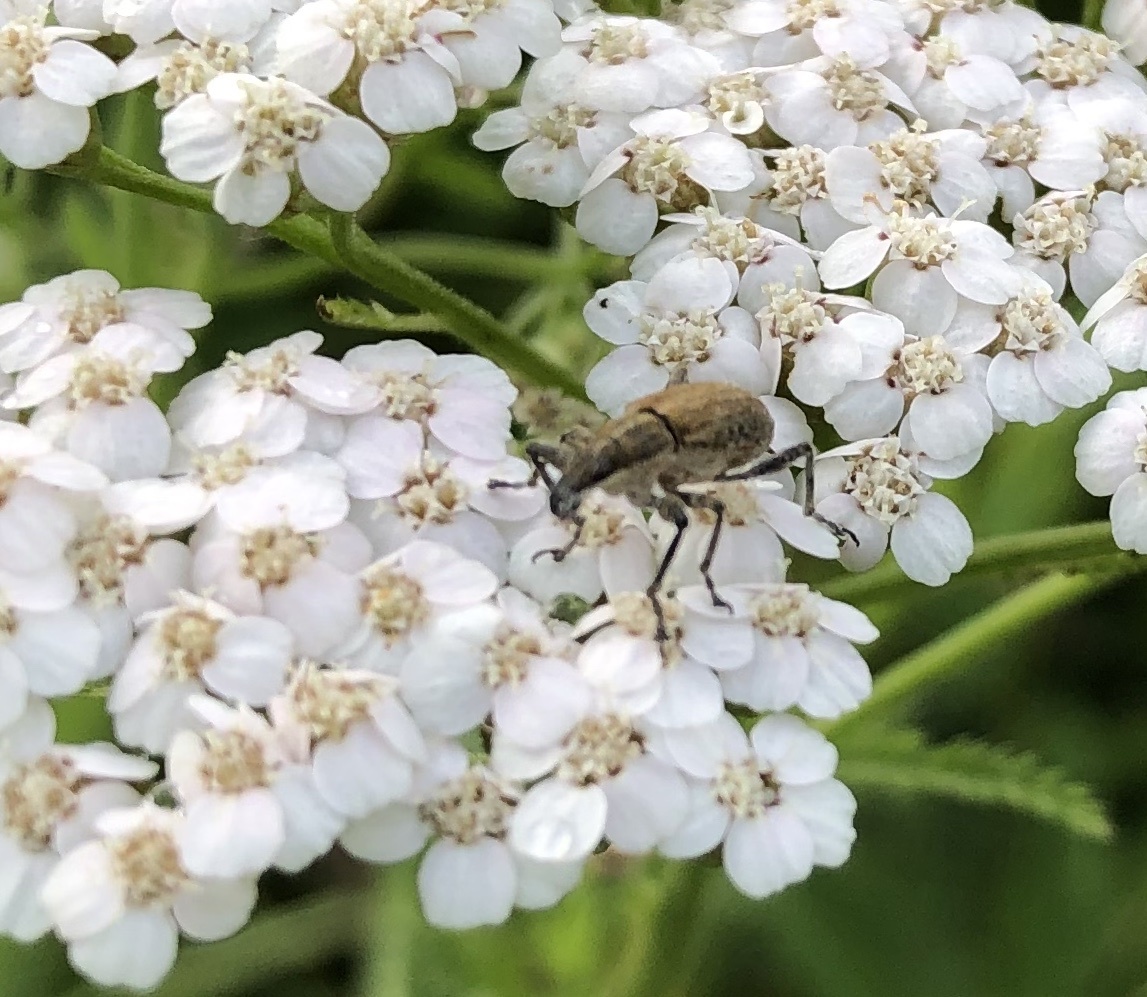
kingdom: Animalia
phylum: Arthropoda
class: Insecta
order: Coleoptera
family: Curculionidae
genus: Charagmus
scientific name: Charagmus gressorius
